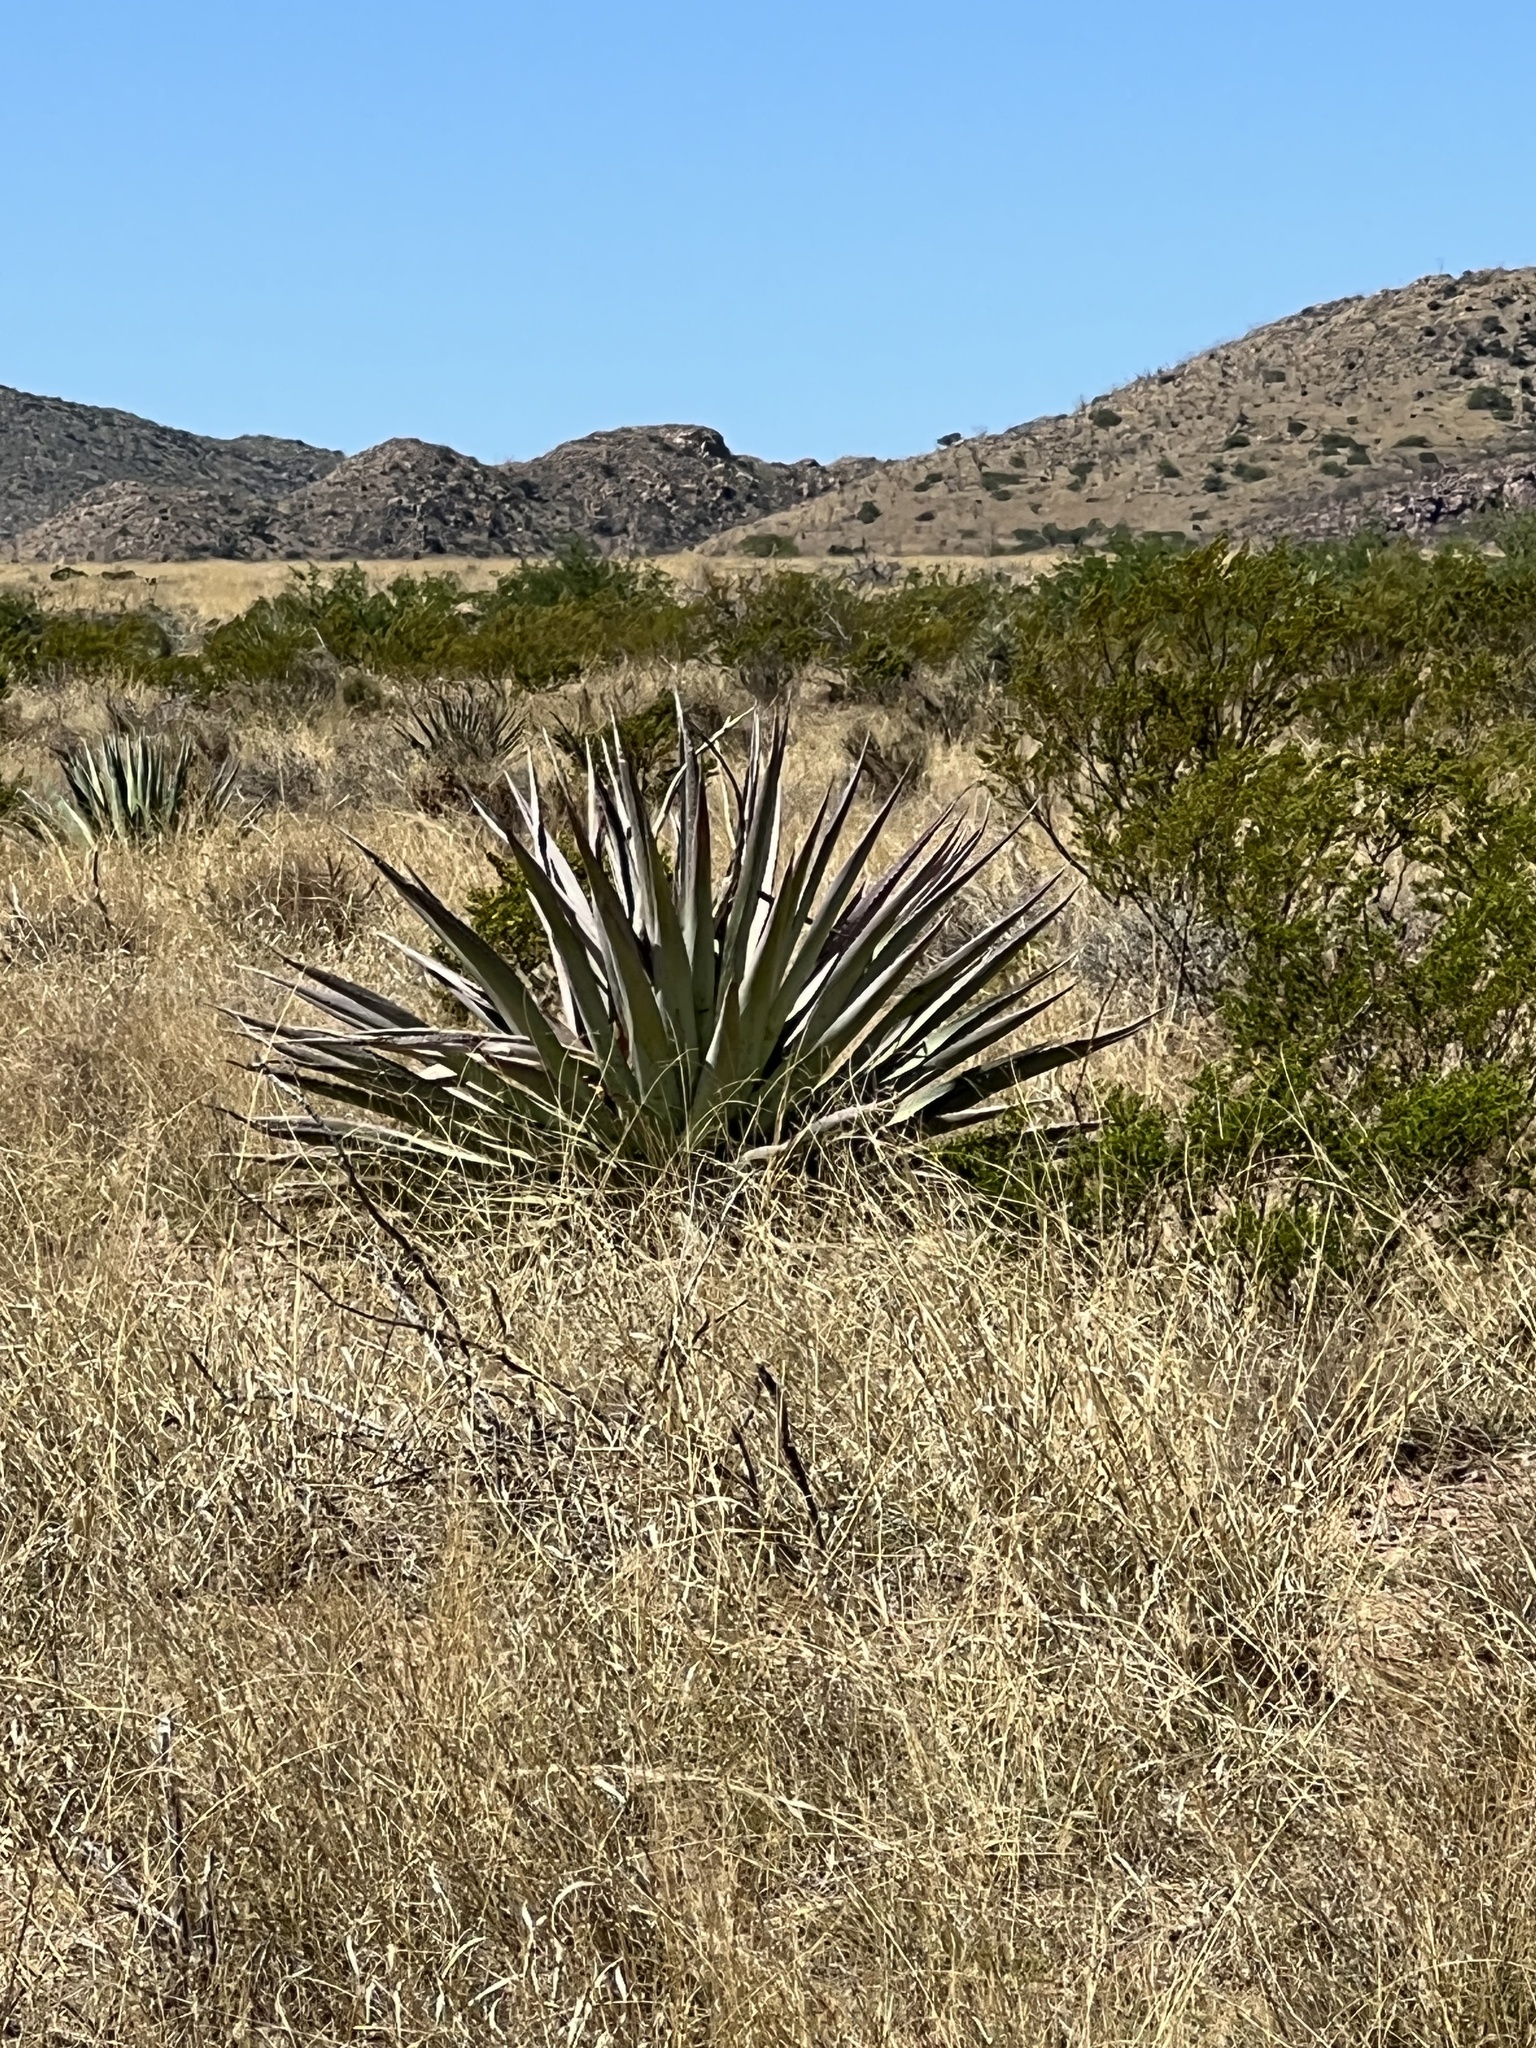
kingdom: Plantae
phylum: Tracheophyta
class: Liliopsida
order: Asparagales
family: Asparagaceae
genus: Agave
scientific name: Agave palmeri
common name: Palmer agave
